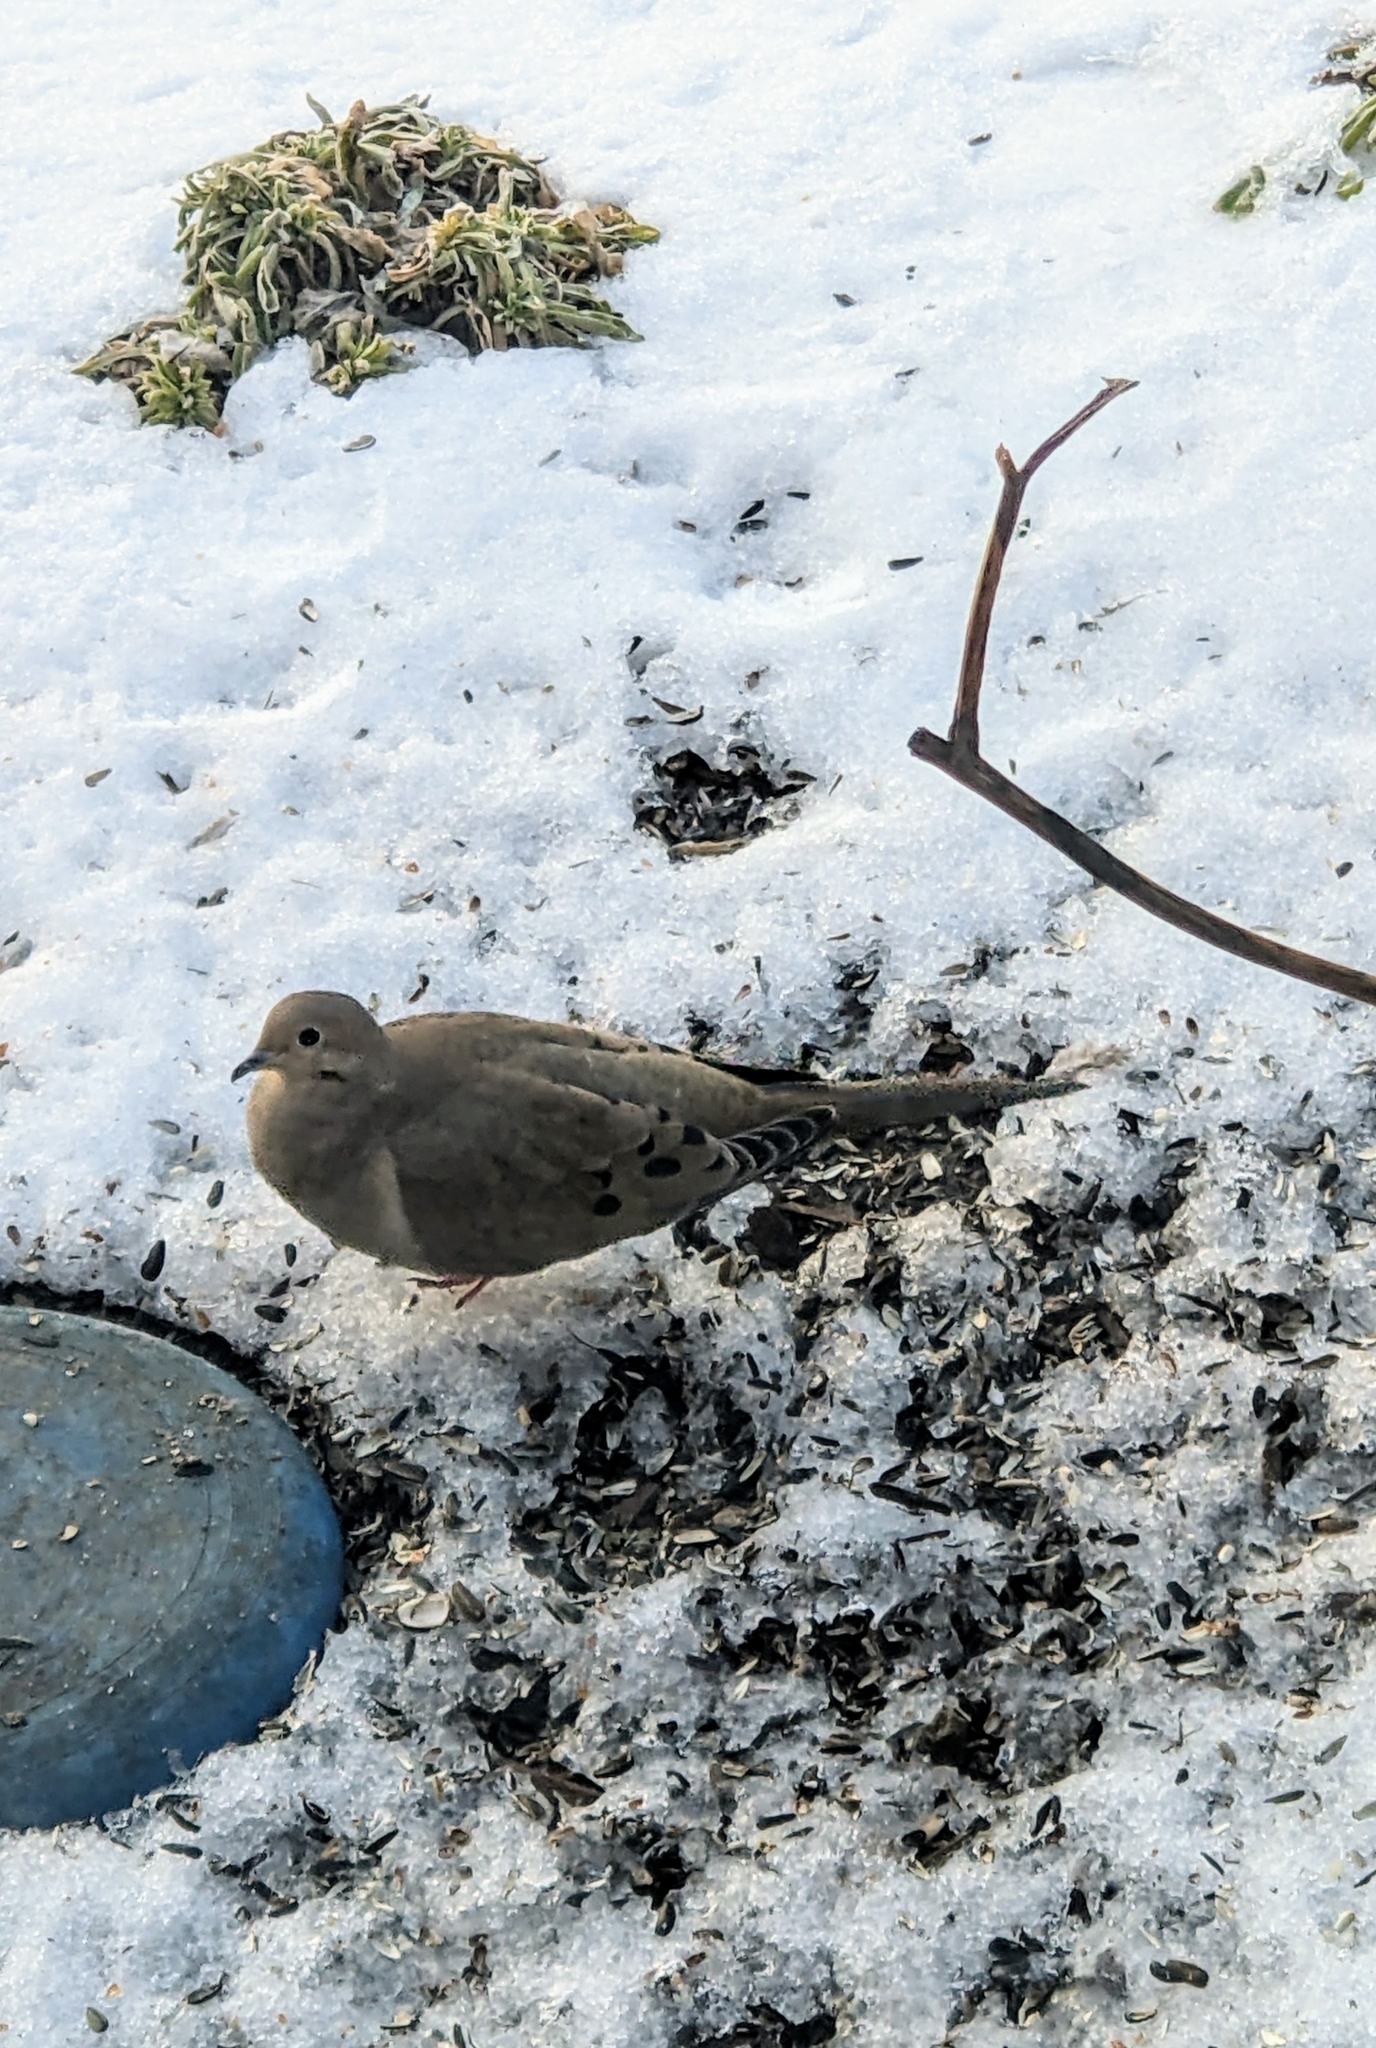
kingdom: Animalia
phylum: Chordata
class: Aves
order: Columbiformes
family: Columbidae
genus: Zenaida
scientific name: Zenaida macroura
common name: Mourning dove
